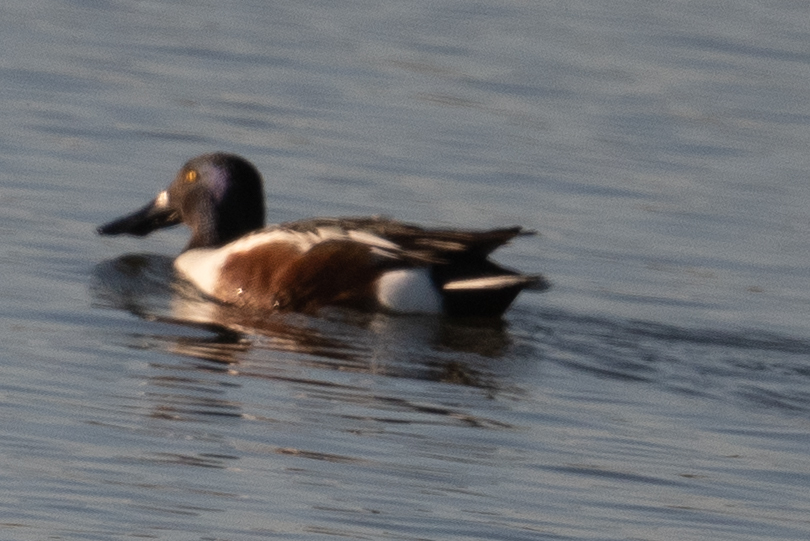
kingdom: Animalia
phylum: Chordata
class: Aves
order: Anseriformes
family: Anatidae
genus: Spatula
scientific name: Spatula clypeata
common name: Northern shoveler
